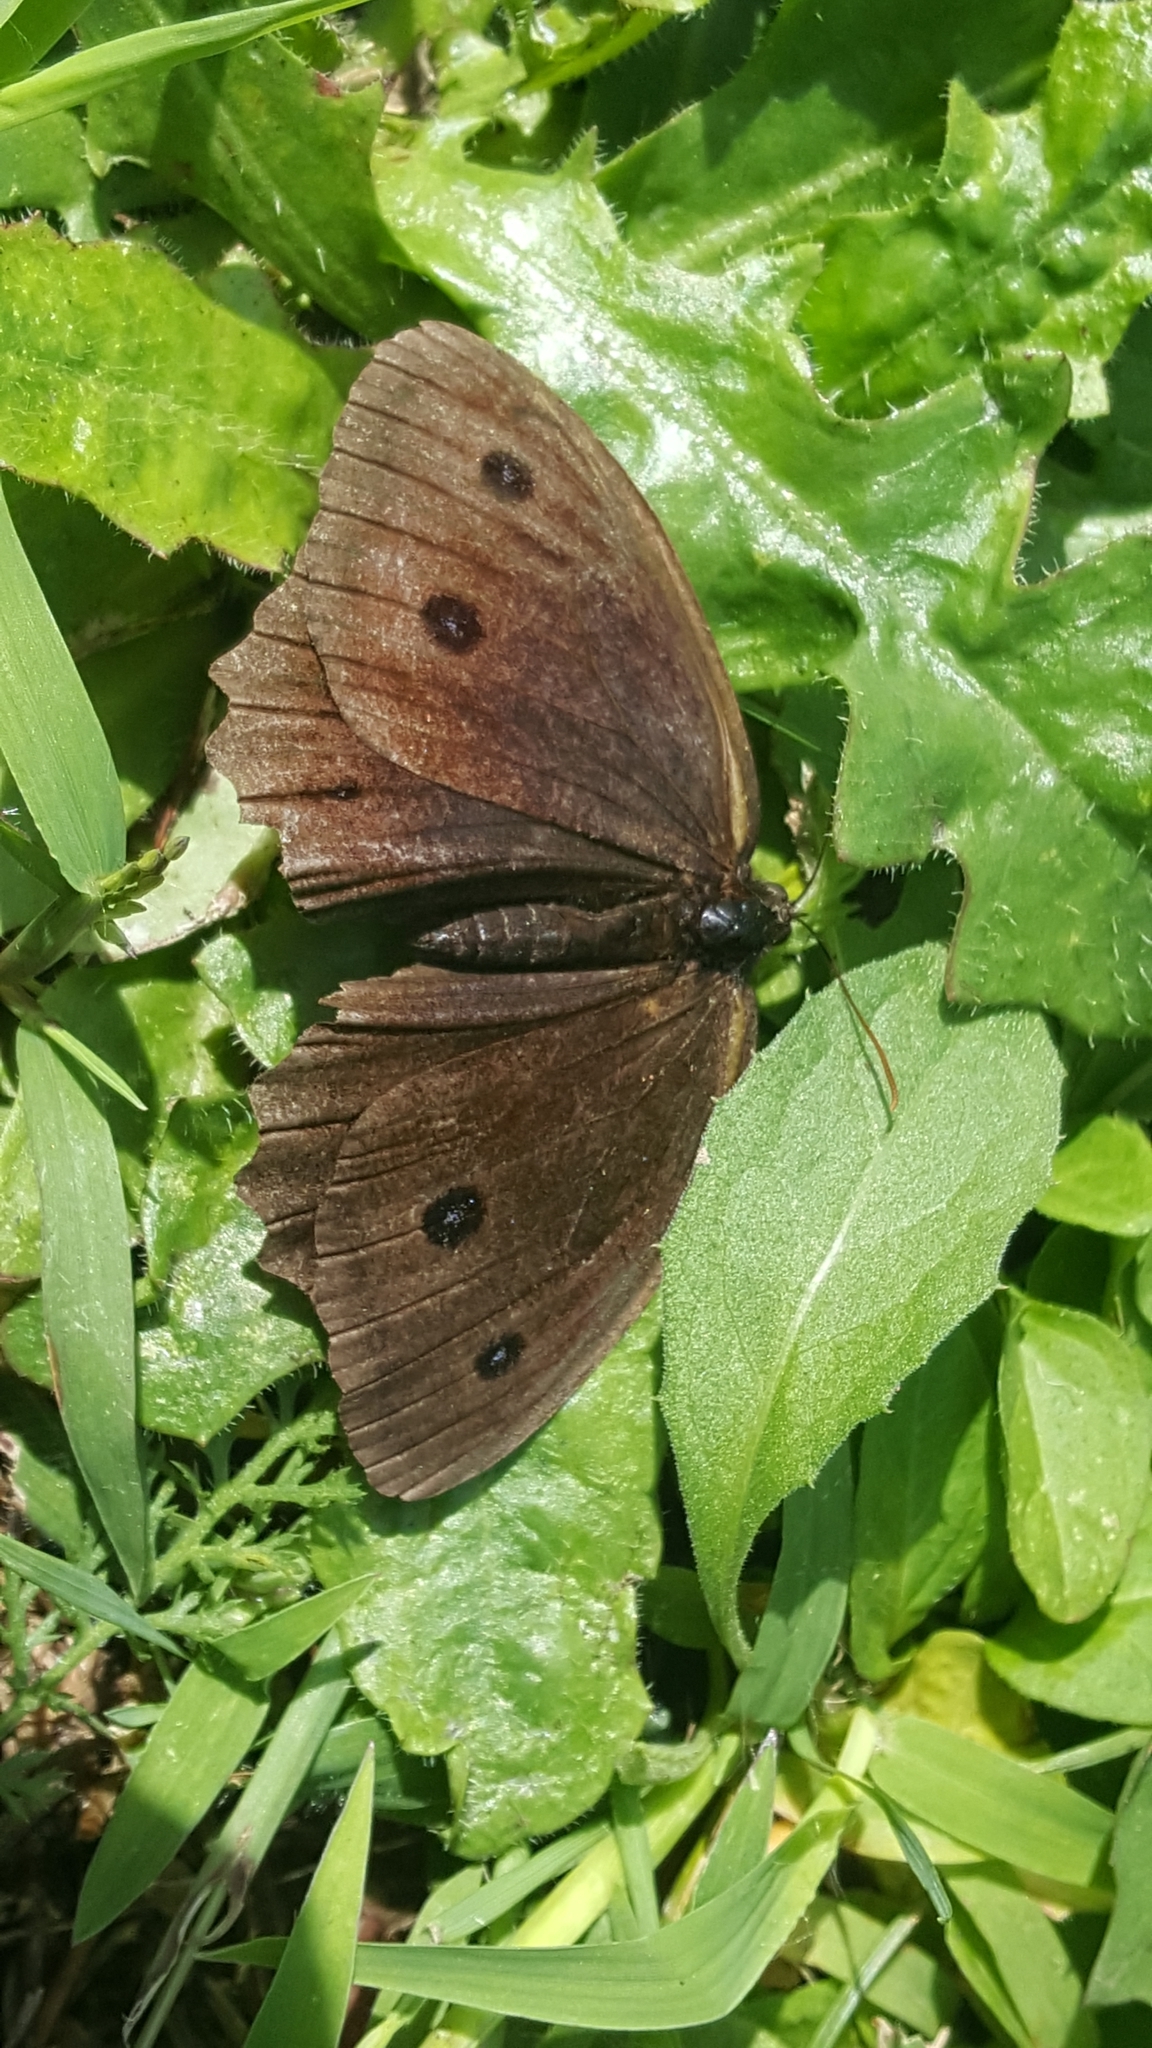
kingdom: Animalia
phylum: Arthropoda
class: Insecta
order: Lepidoptera
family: Nymphalidae
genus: Minois
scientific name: Minois dryas
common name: Dryad
